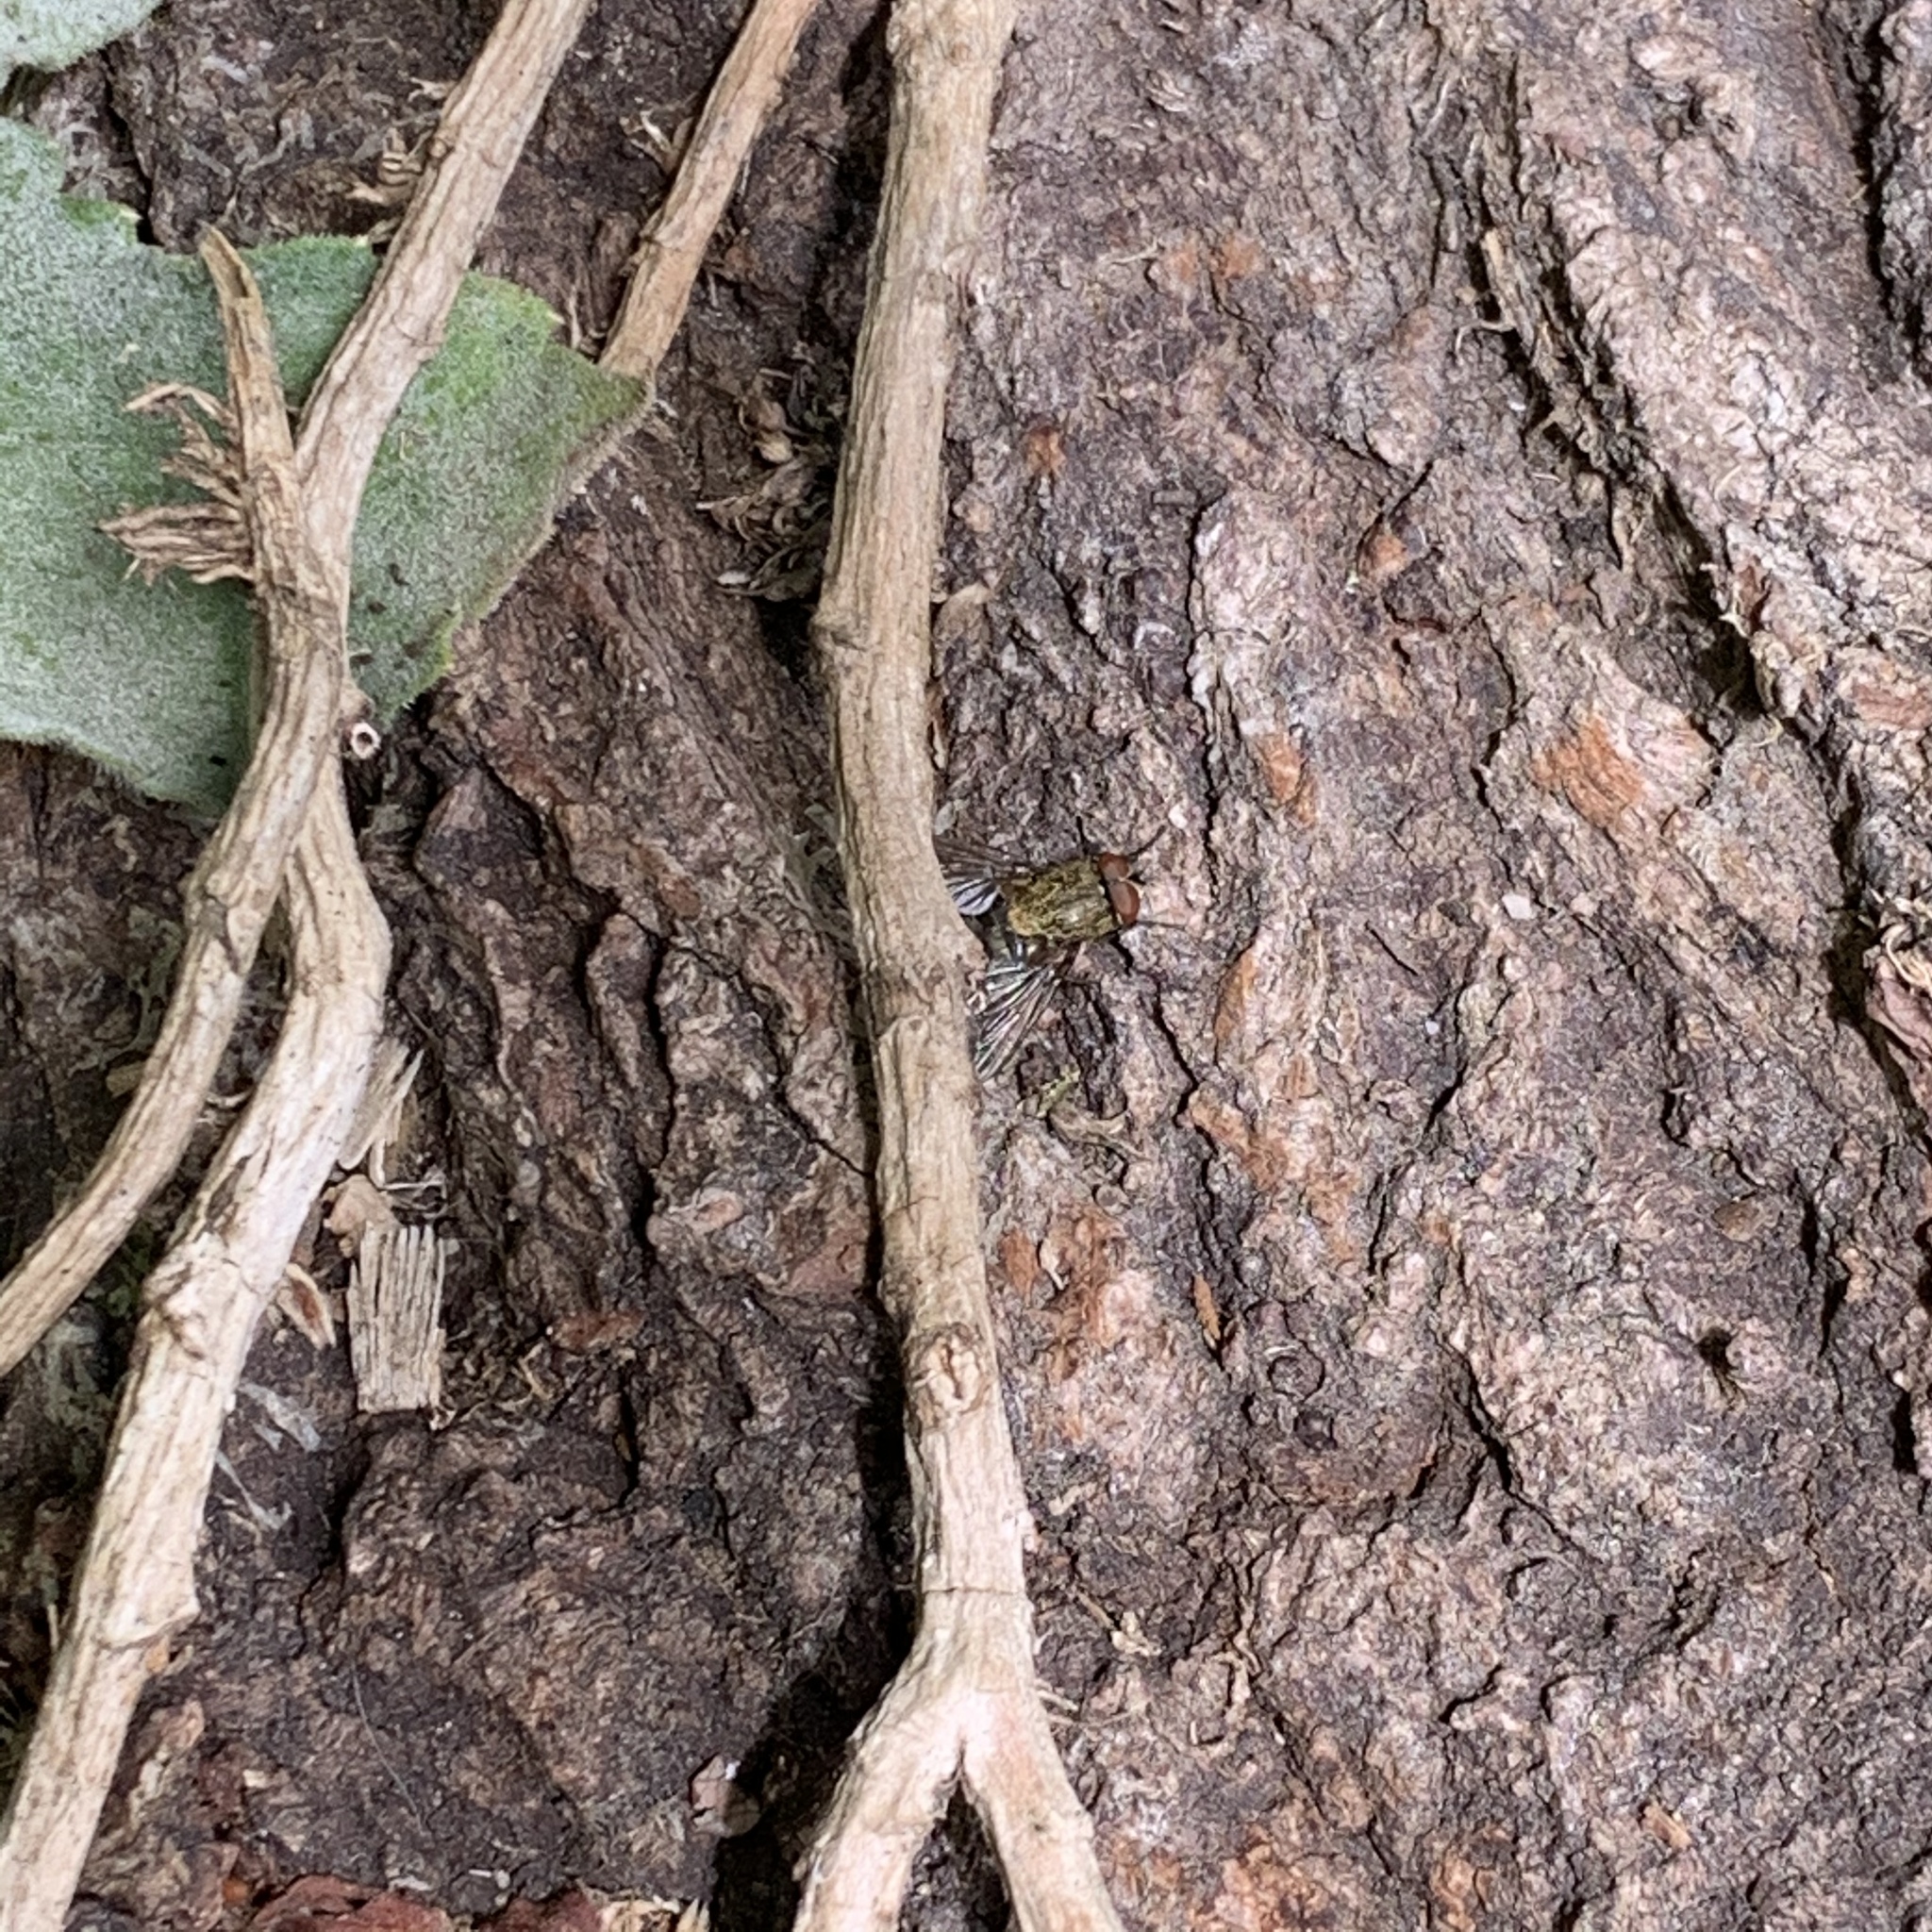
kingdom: Animalia
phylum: Arthropoda
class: Insecta
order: Diptera
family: Polleniidae
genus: Pollenia
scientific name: Pollenia
